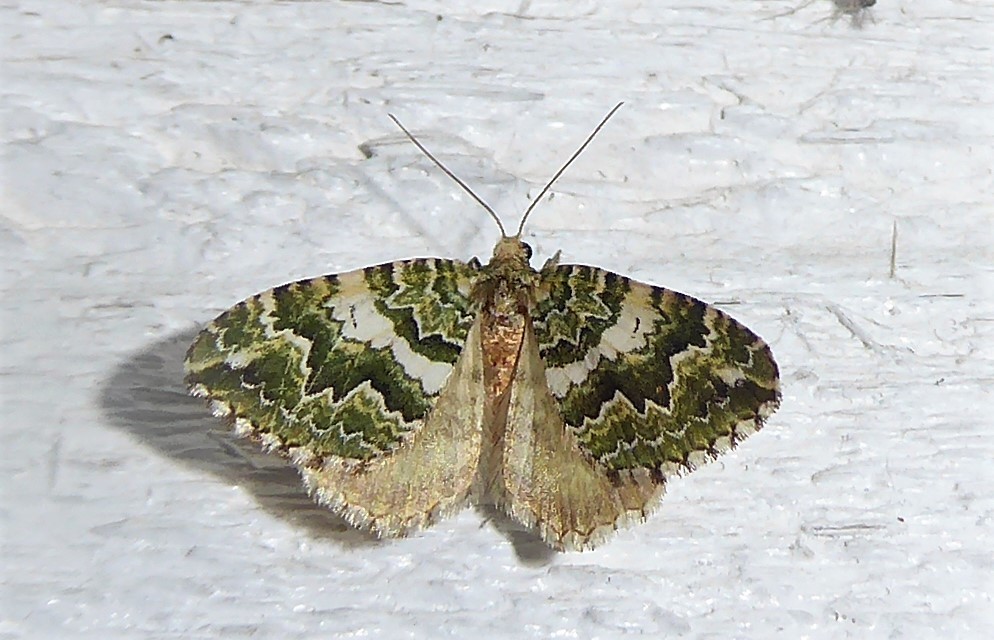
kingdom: Animalia
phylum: Arthropoda
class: Insecta
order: Lepidoptera
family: Geometridae
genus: Asaphodes
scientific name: Asaphodes beata
